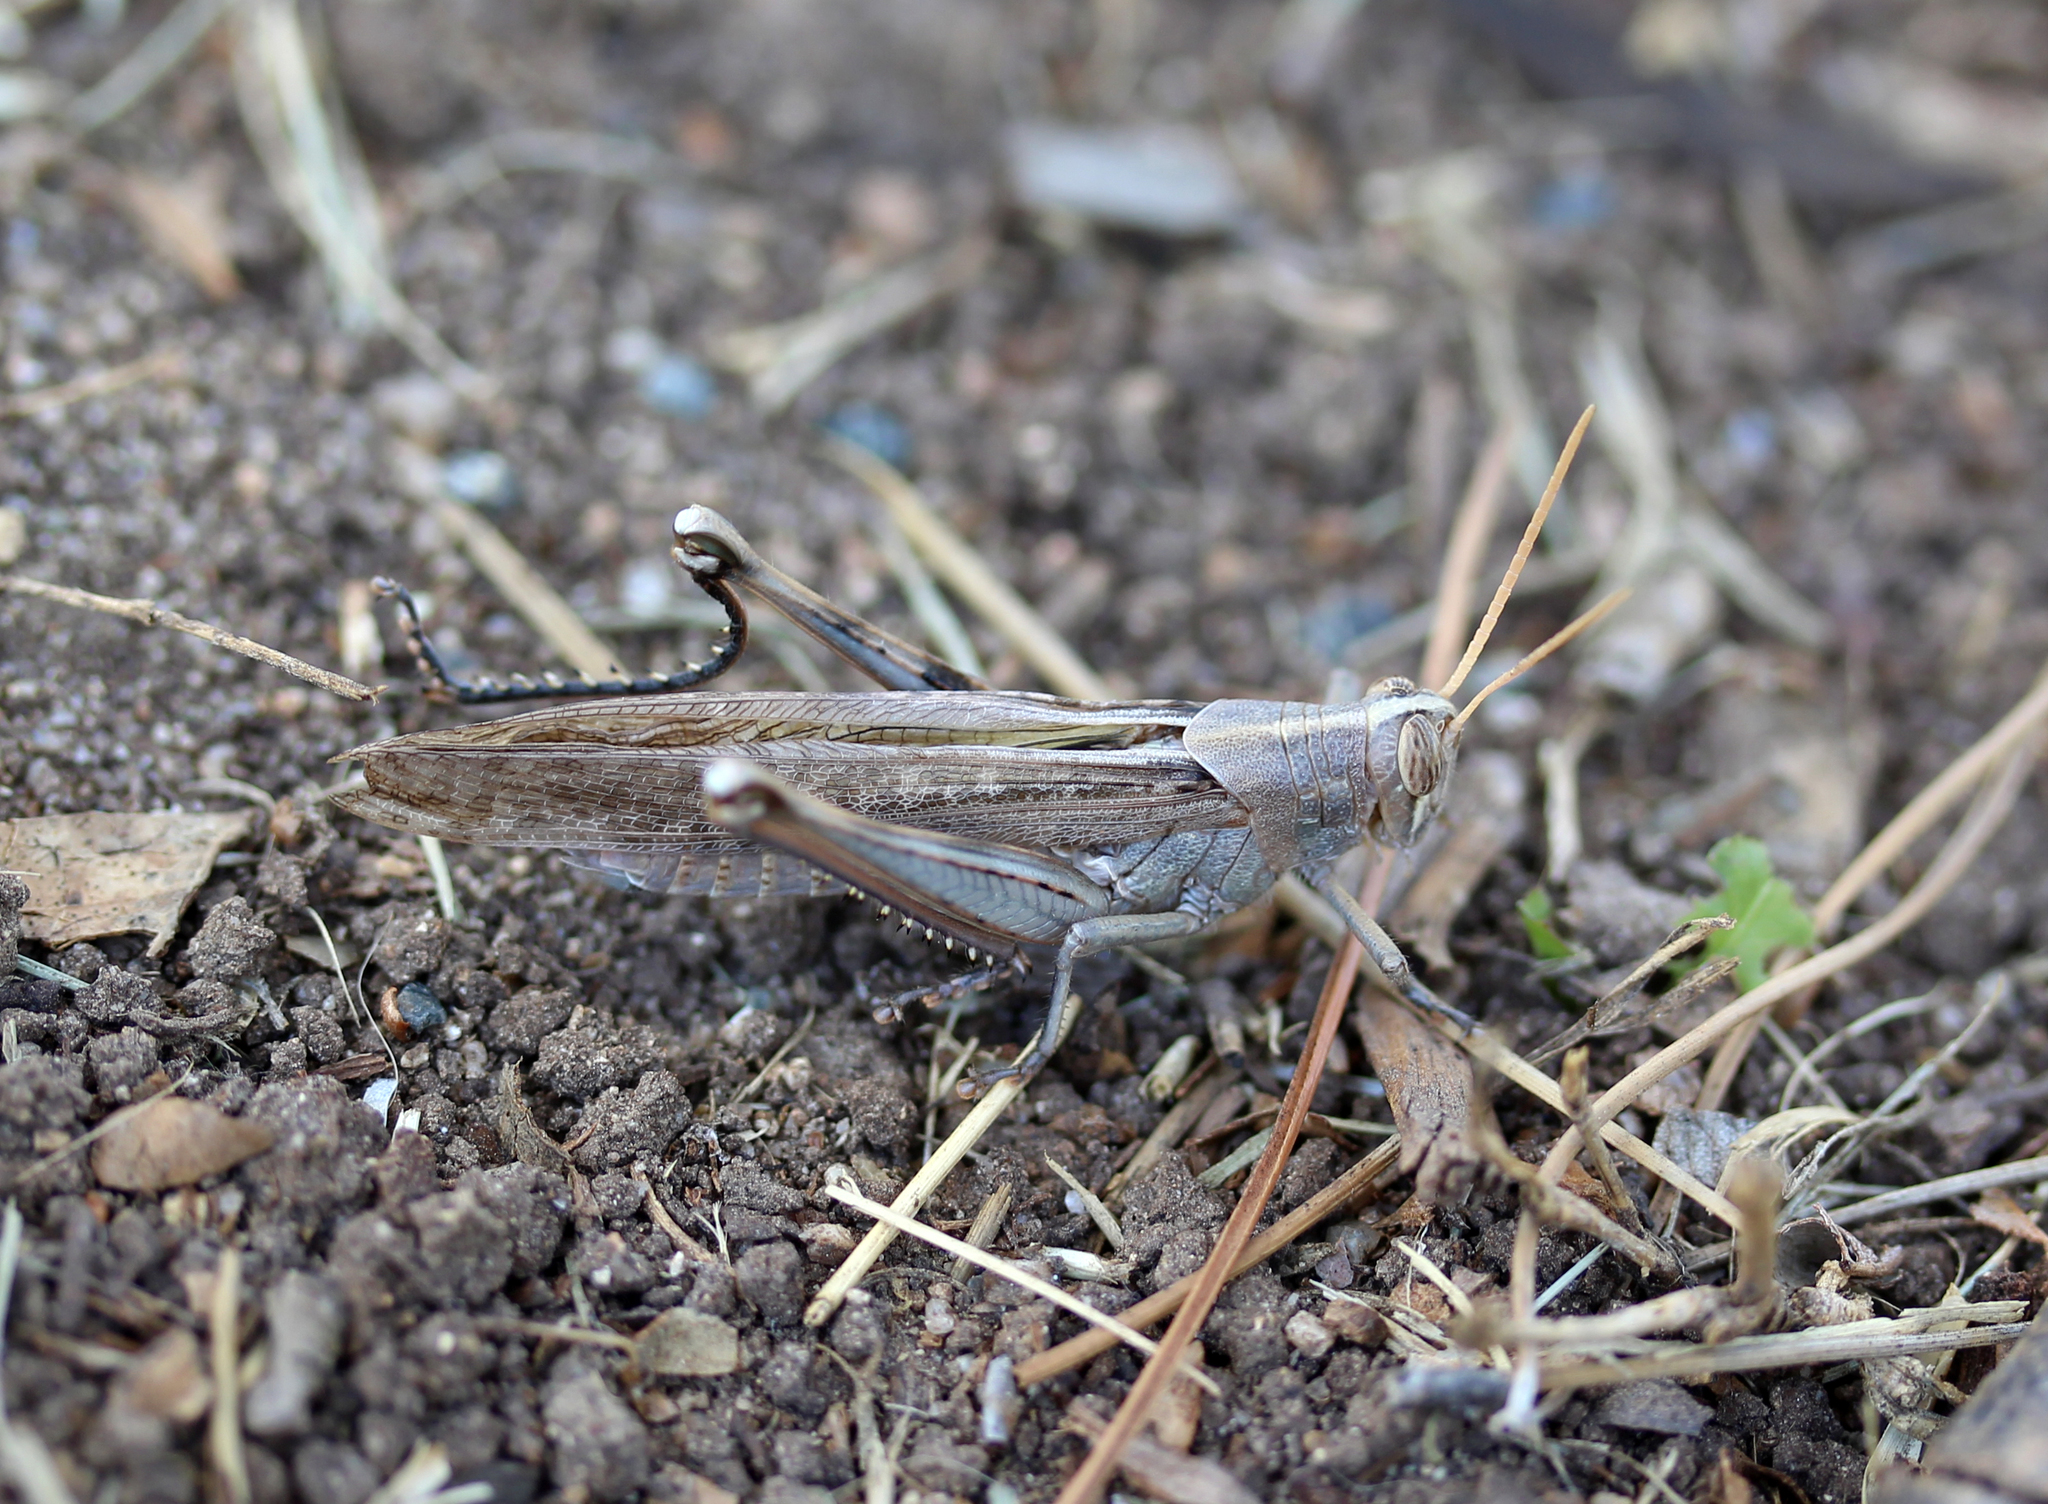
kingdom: Animalia
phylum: Arthropoda
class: Insecta
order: Orthoptera
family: Acrididae
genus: Schistocerca
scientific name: Schistocerca nitens
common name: Vagrant grasshopper
